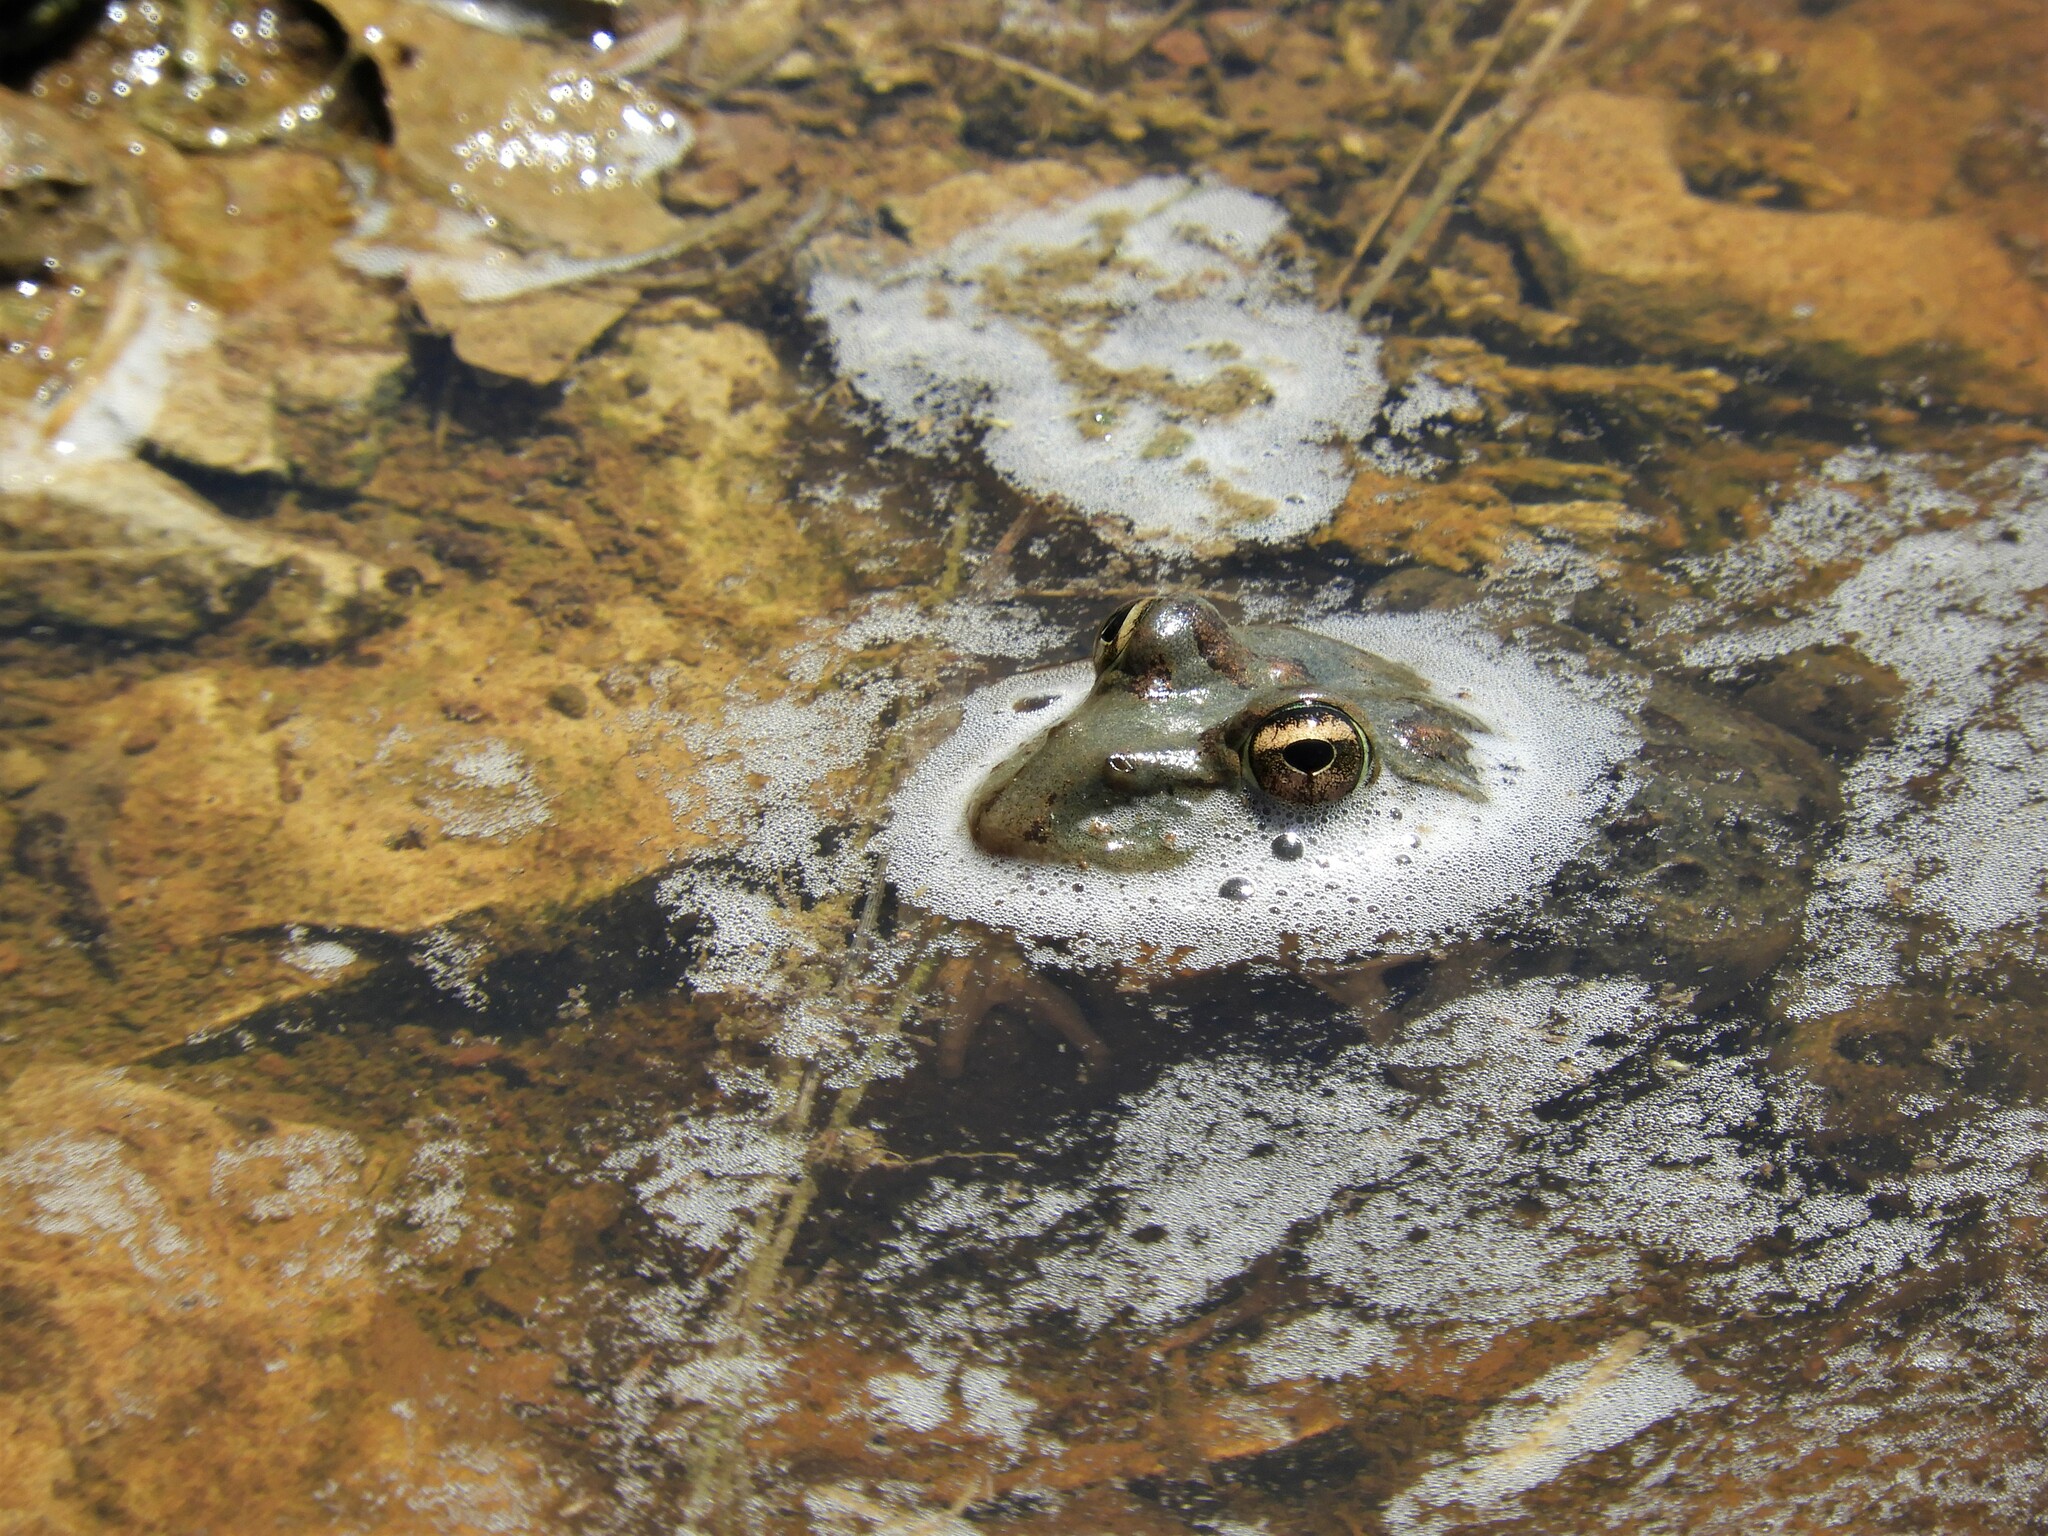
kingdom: Animalia
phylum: Chordata
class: Amphibia
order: Anura
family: Pyxicephalidae
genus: Amietia
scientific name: Amietia poyntoni
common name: Poynton's river frog
